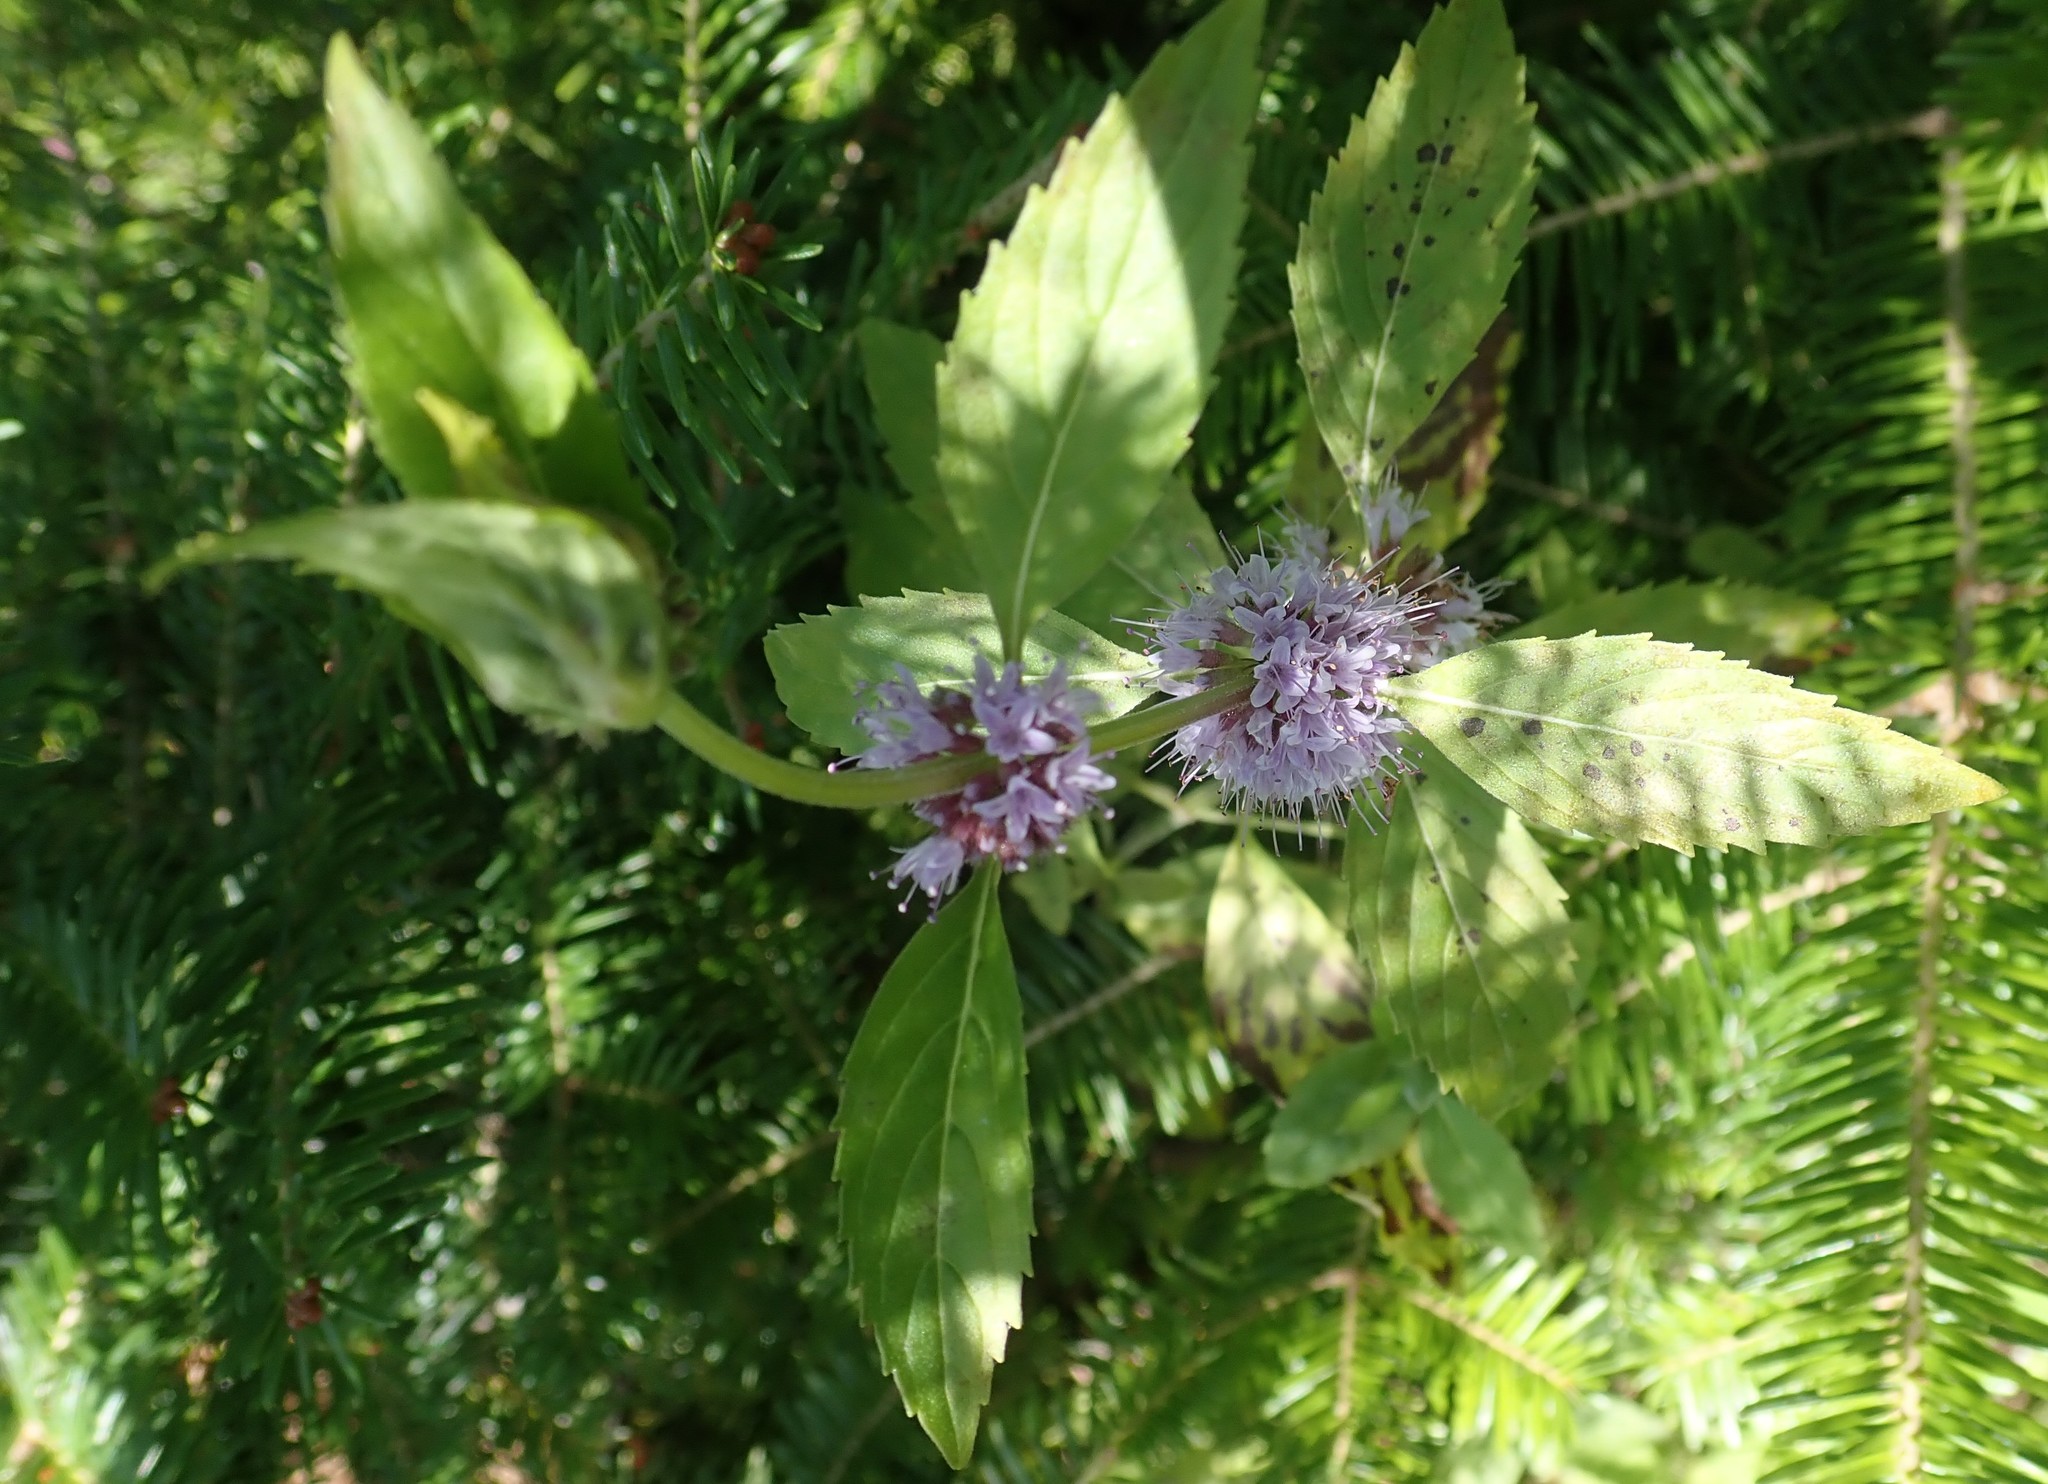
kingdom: Plantae
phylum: Tracheophyta
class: Magnoliopsida
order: Lamiales
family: Lamiaceae
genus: Mentha
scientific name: Mentha arvensis
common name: Corn mint
